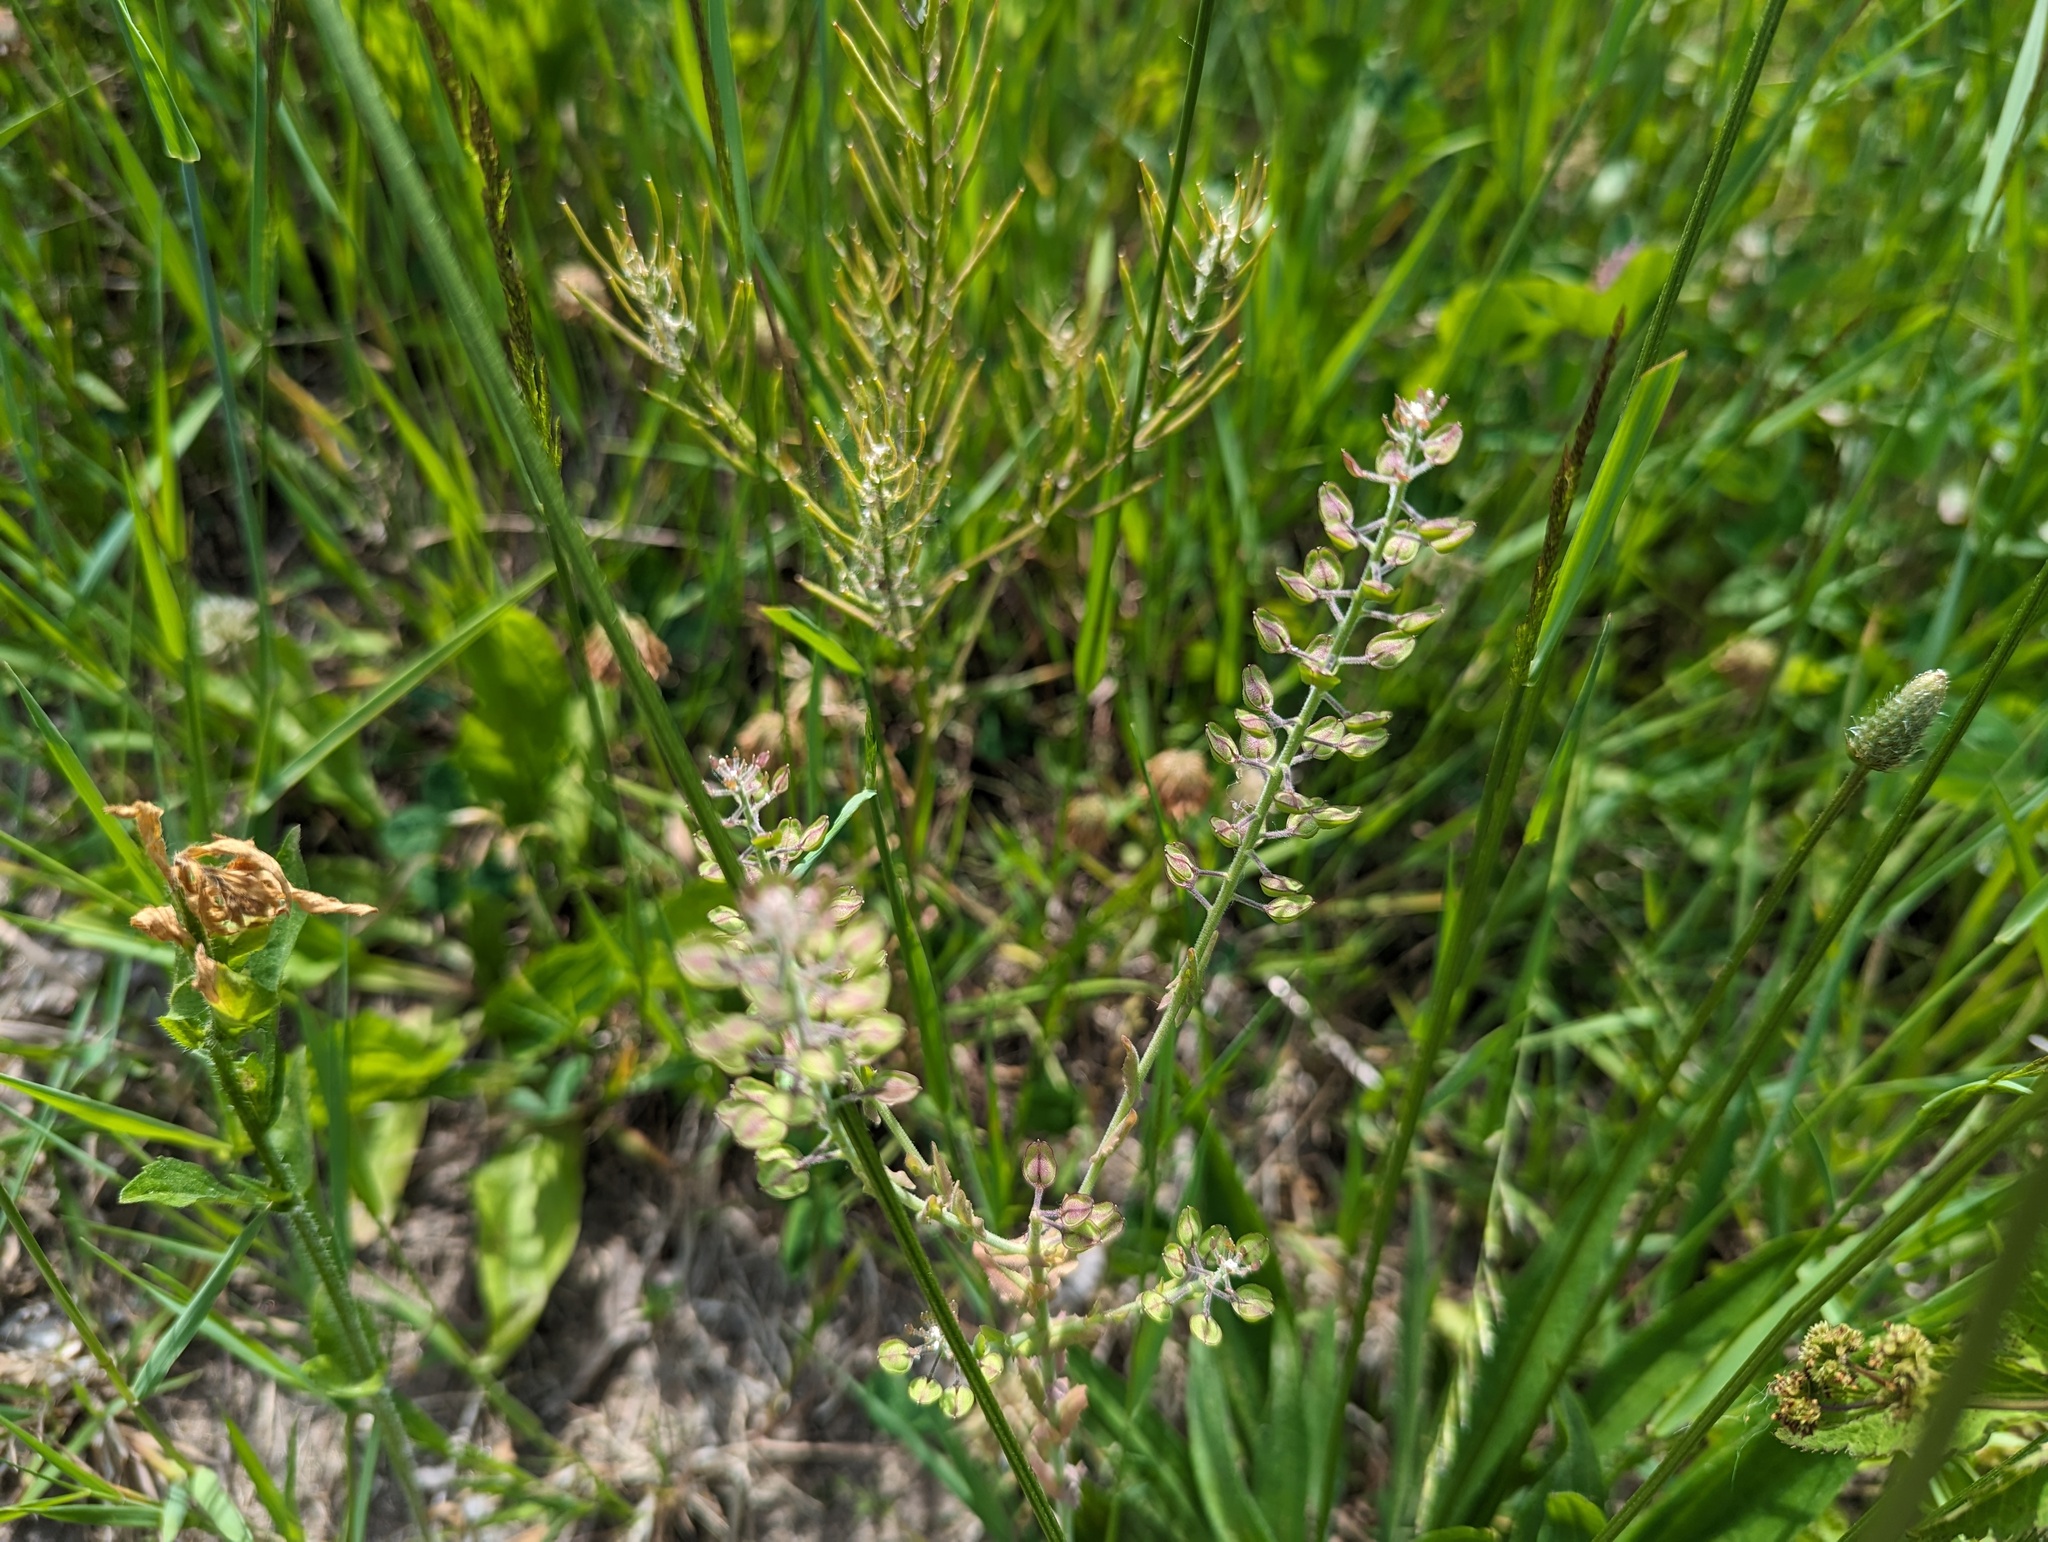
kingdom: Plantae
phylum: Tracheophyta
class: Magnoliopsida
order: Brassicales
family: Brassicaceae
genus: Lepidium
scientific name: Lepidium campestre
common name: Field pepperwort
